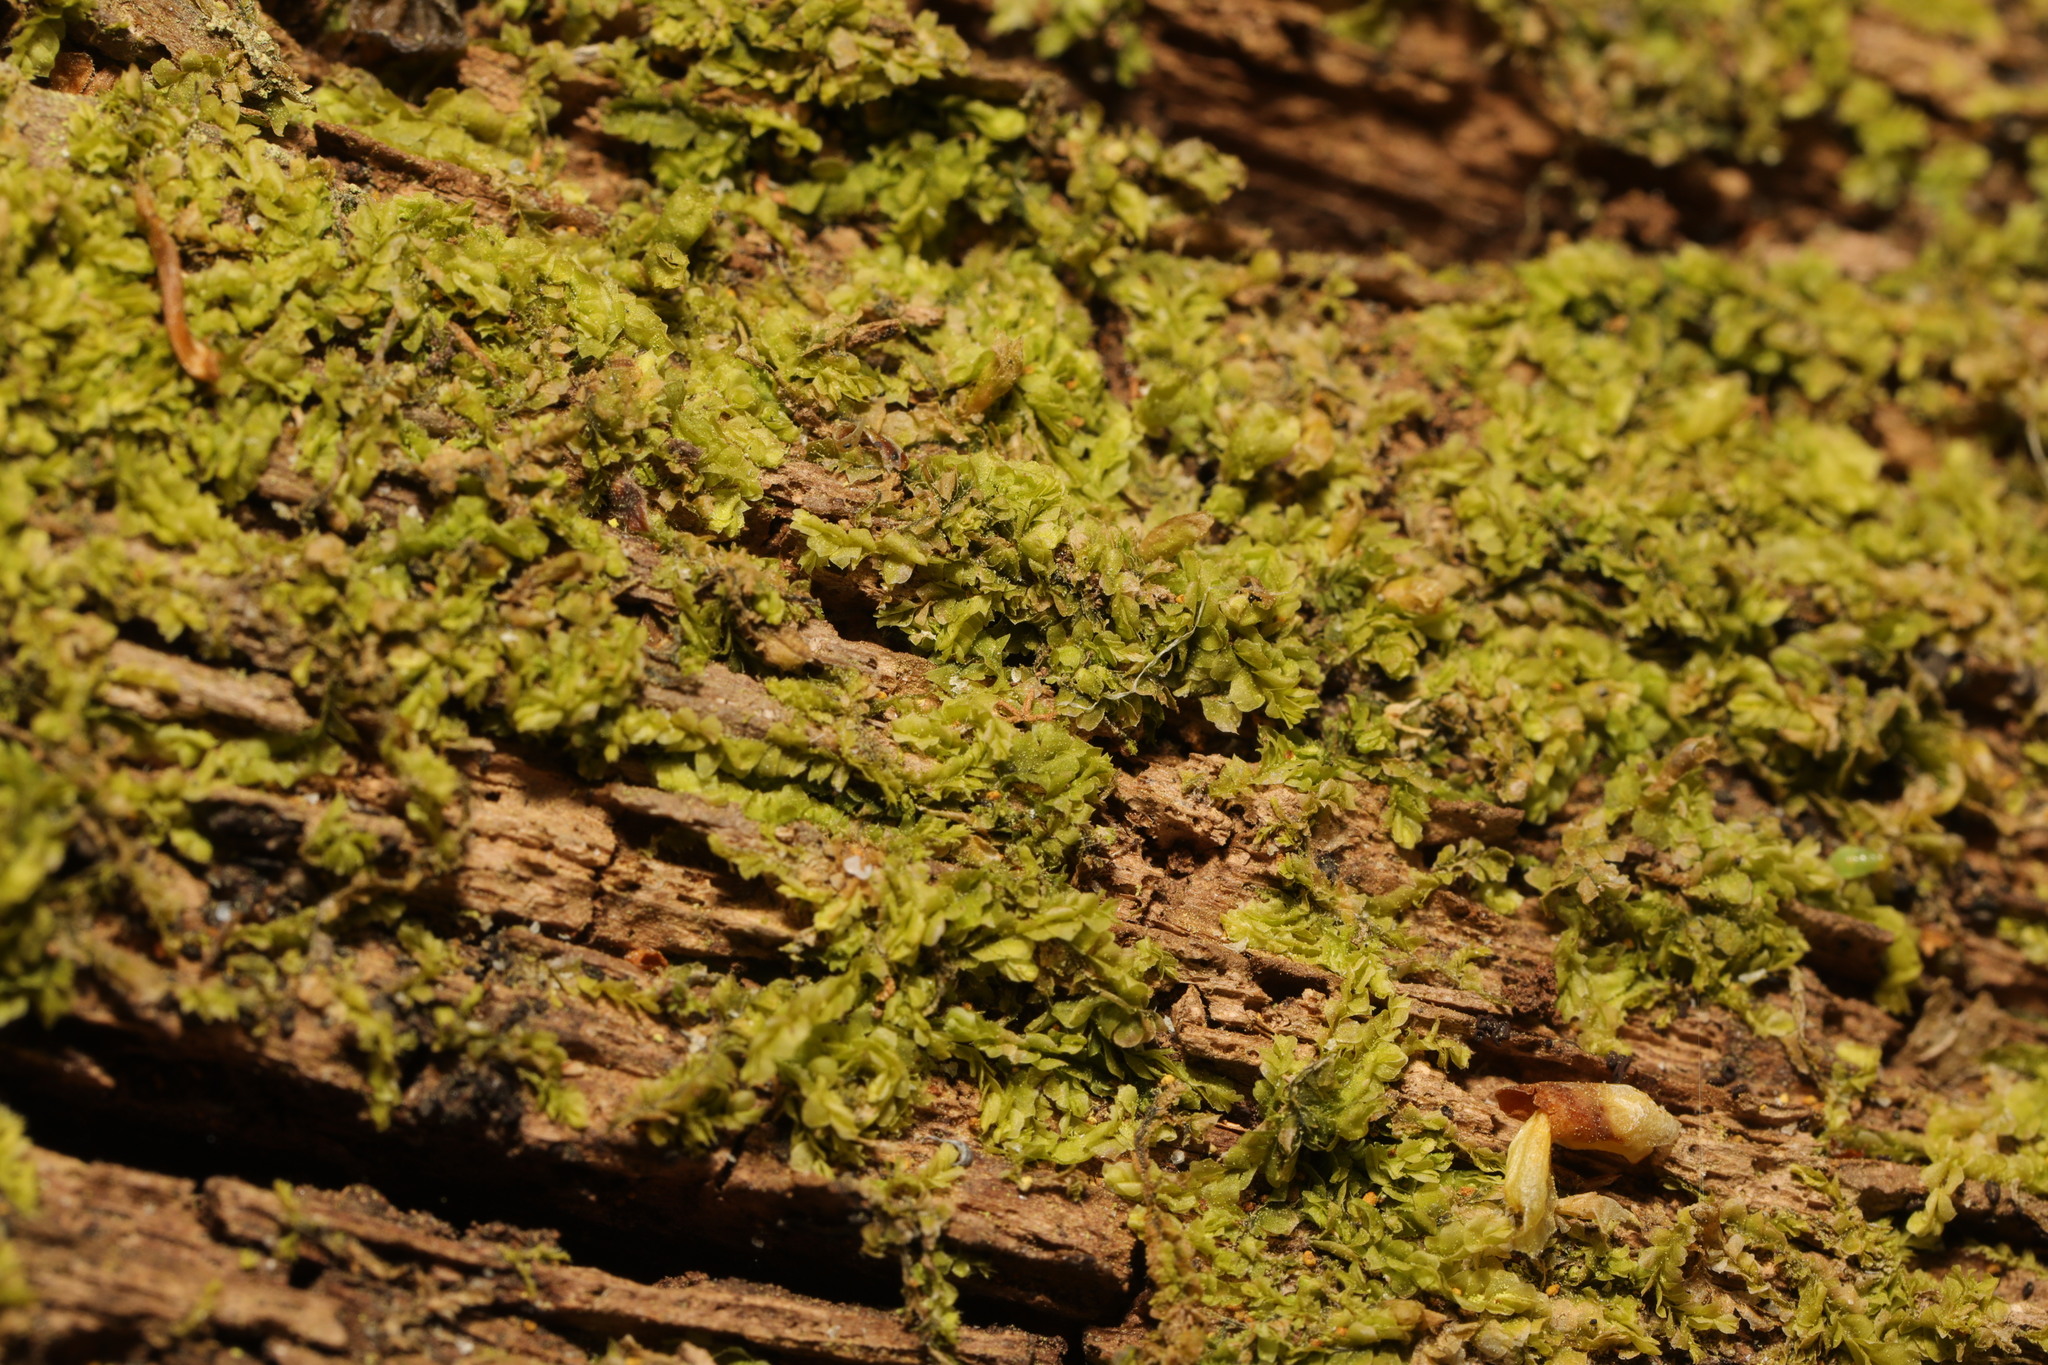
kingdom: Plantae
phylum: Marchantiophyta
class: Jungermanniopsida
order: Jungermanniales
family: Lophocoleaceae
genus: Lophocolea
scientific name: Lophocolea heterophylla
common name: Variable-leaved crestwort
